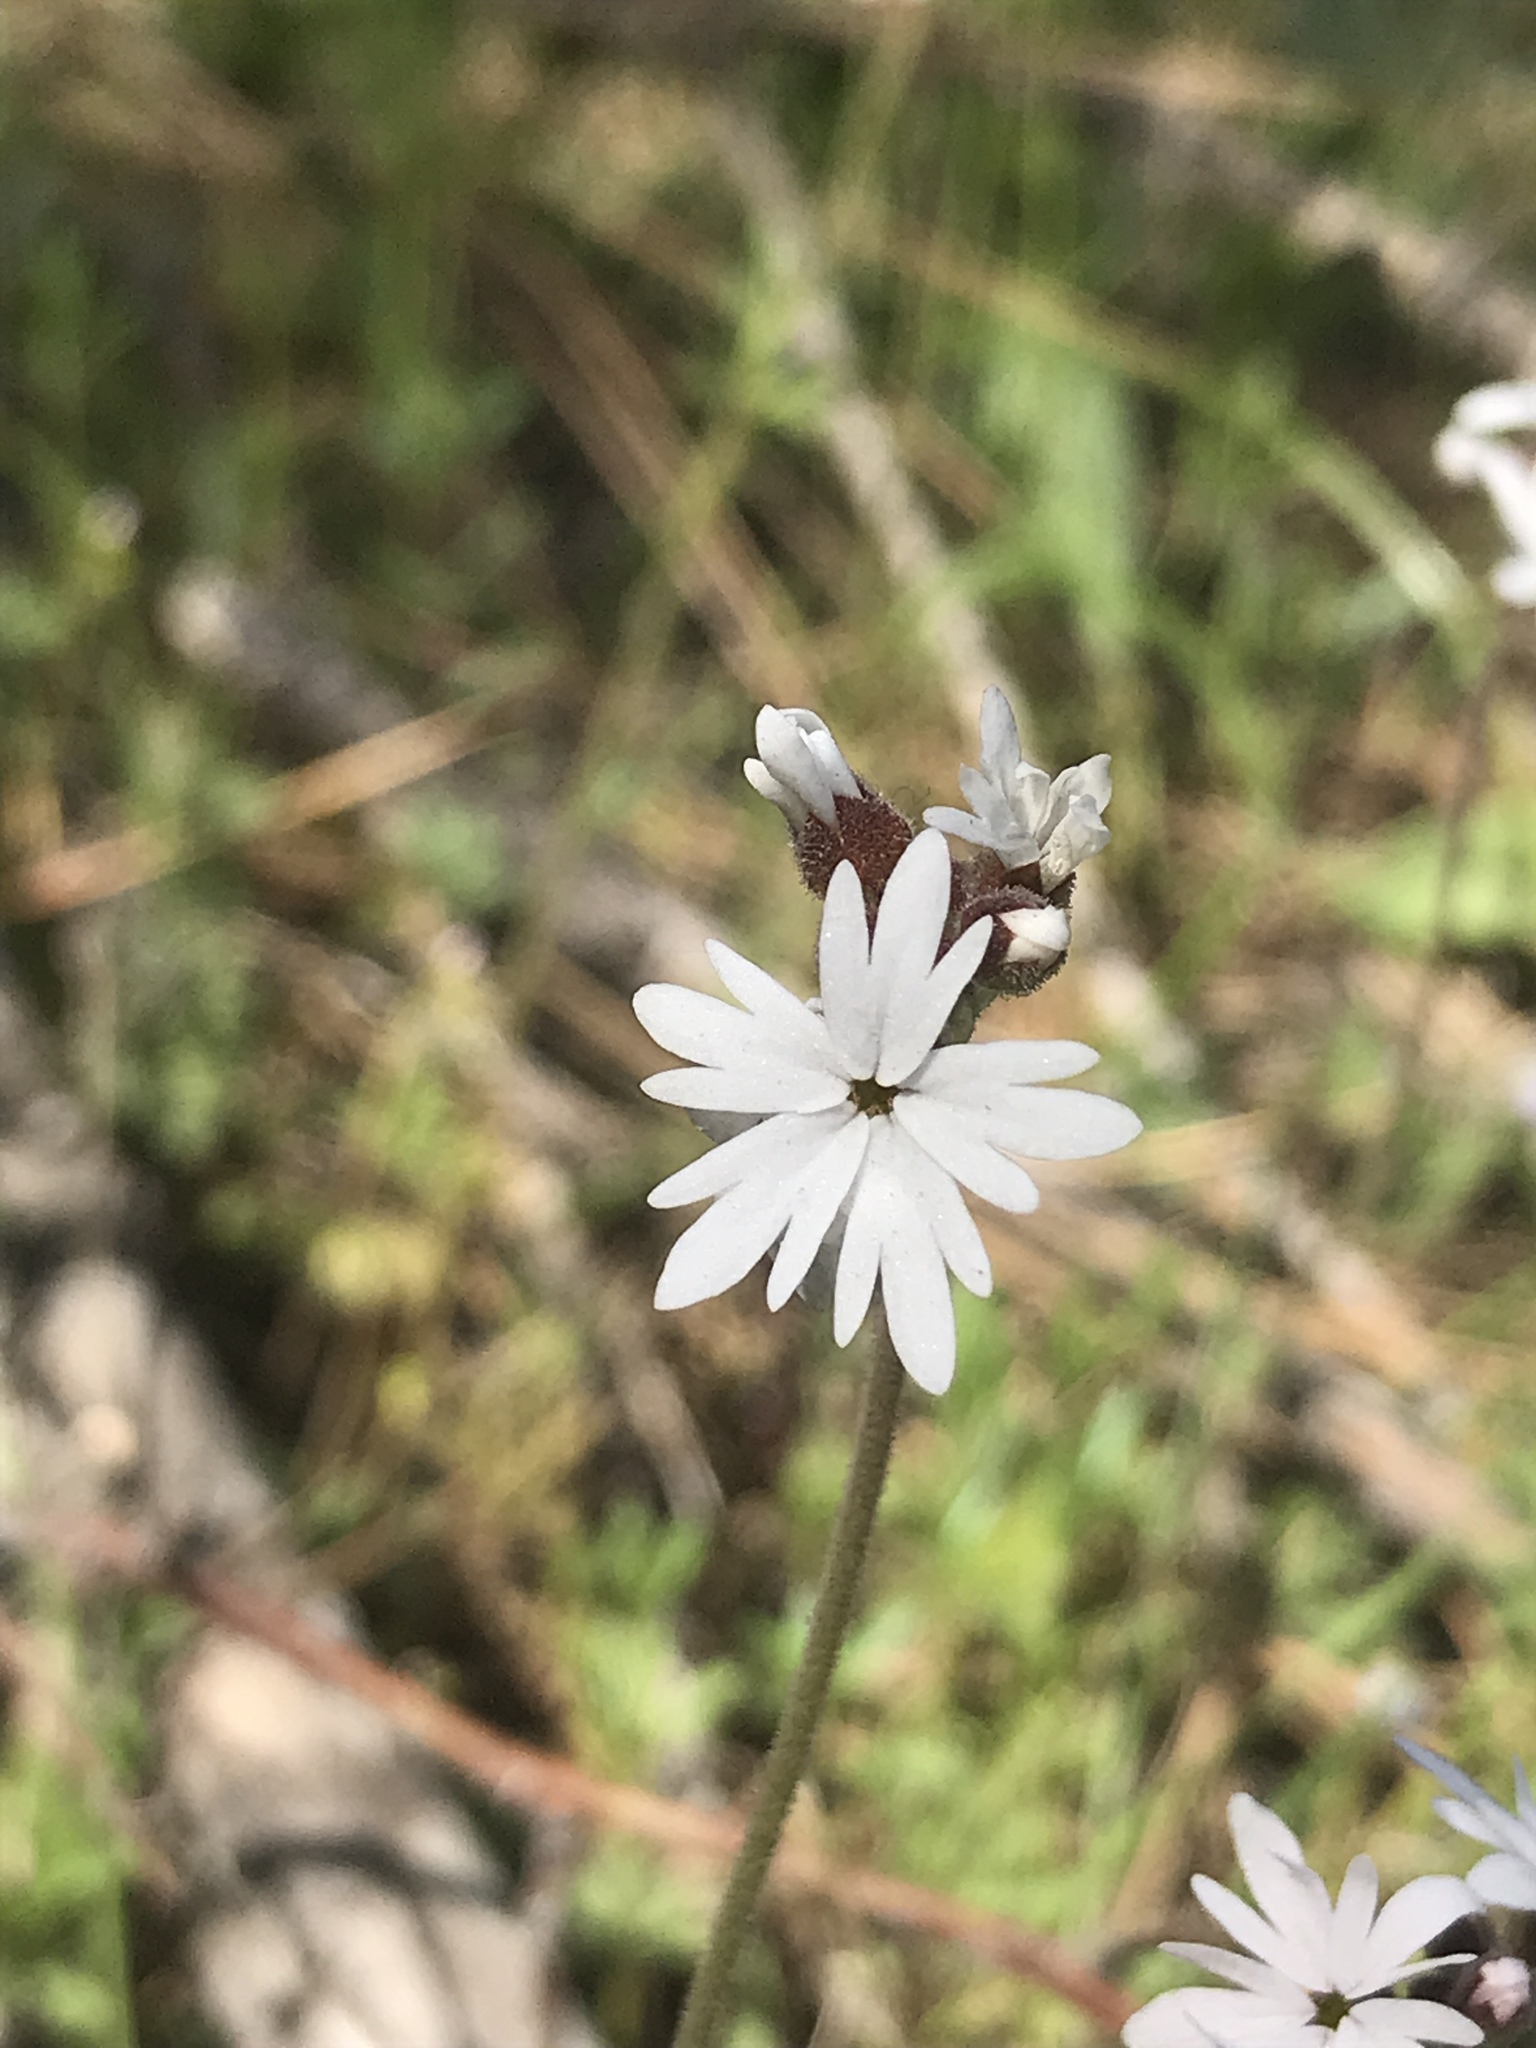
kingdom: Plantae
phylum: Tracheophyta
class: Magnoliopsida
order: Saxifragales
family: Saxifragaceae
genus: Lithophragma
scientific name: Lithophragma parviflorum
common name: Small-flowered fringe-cup
